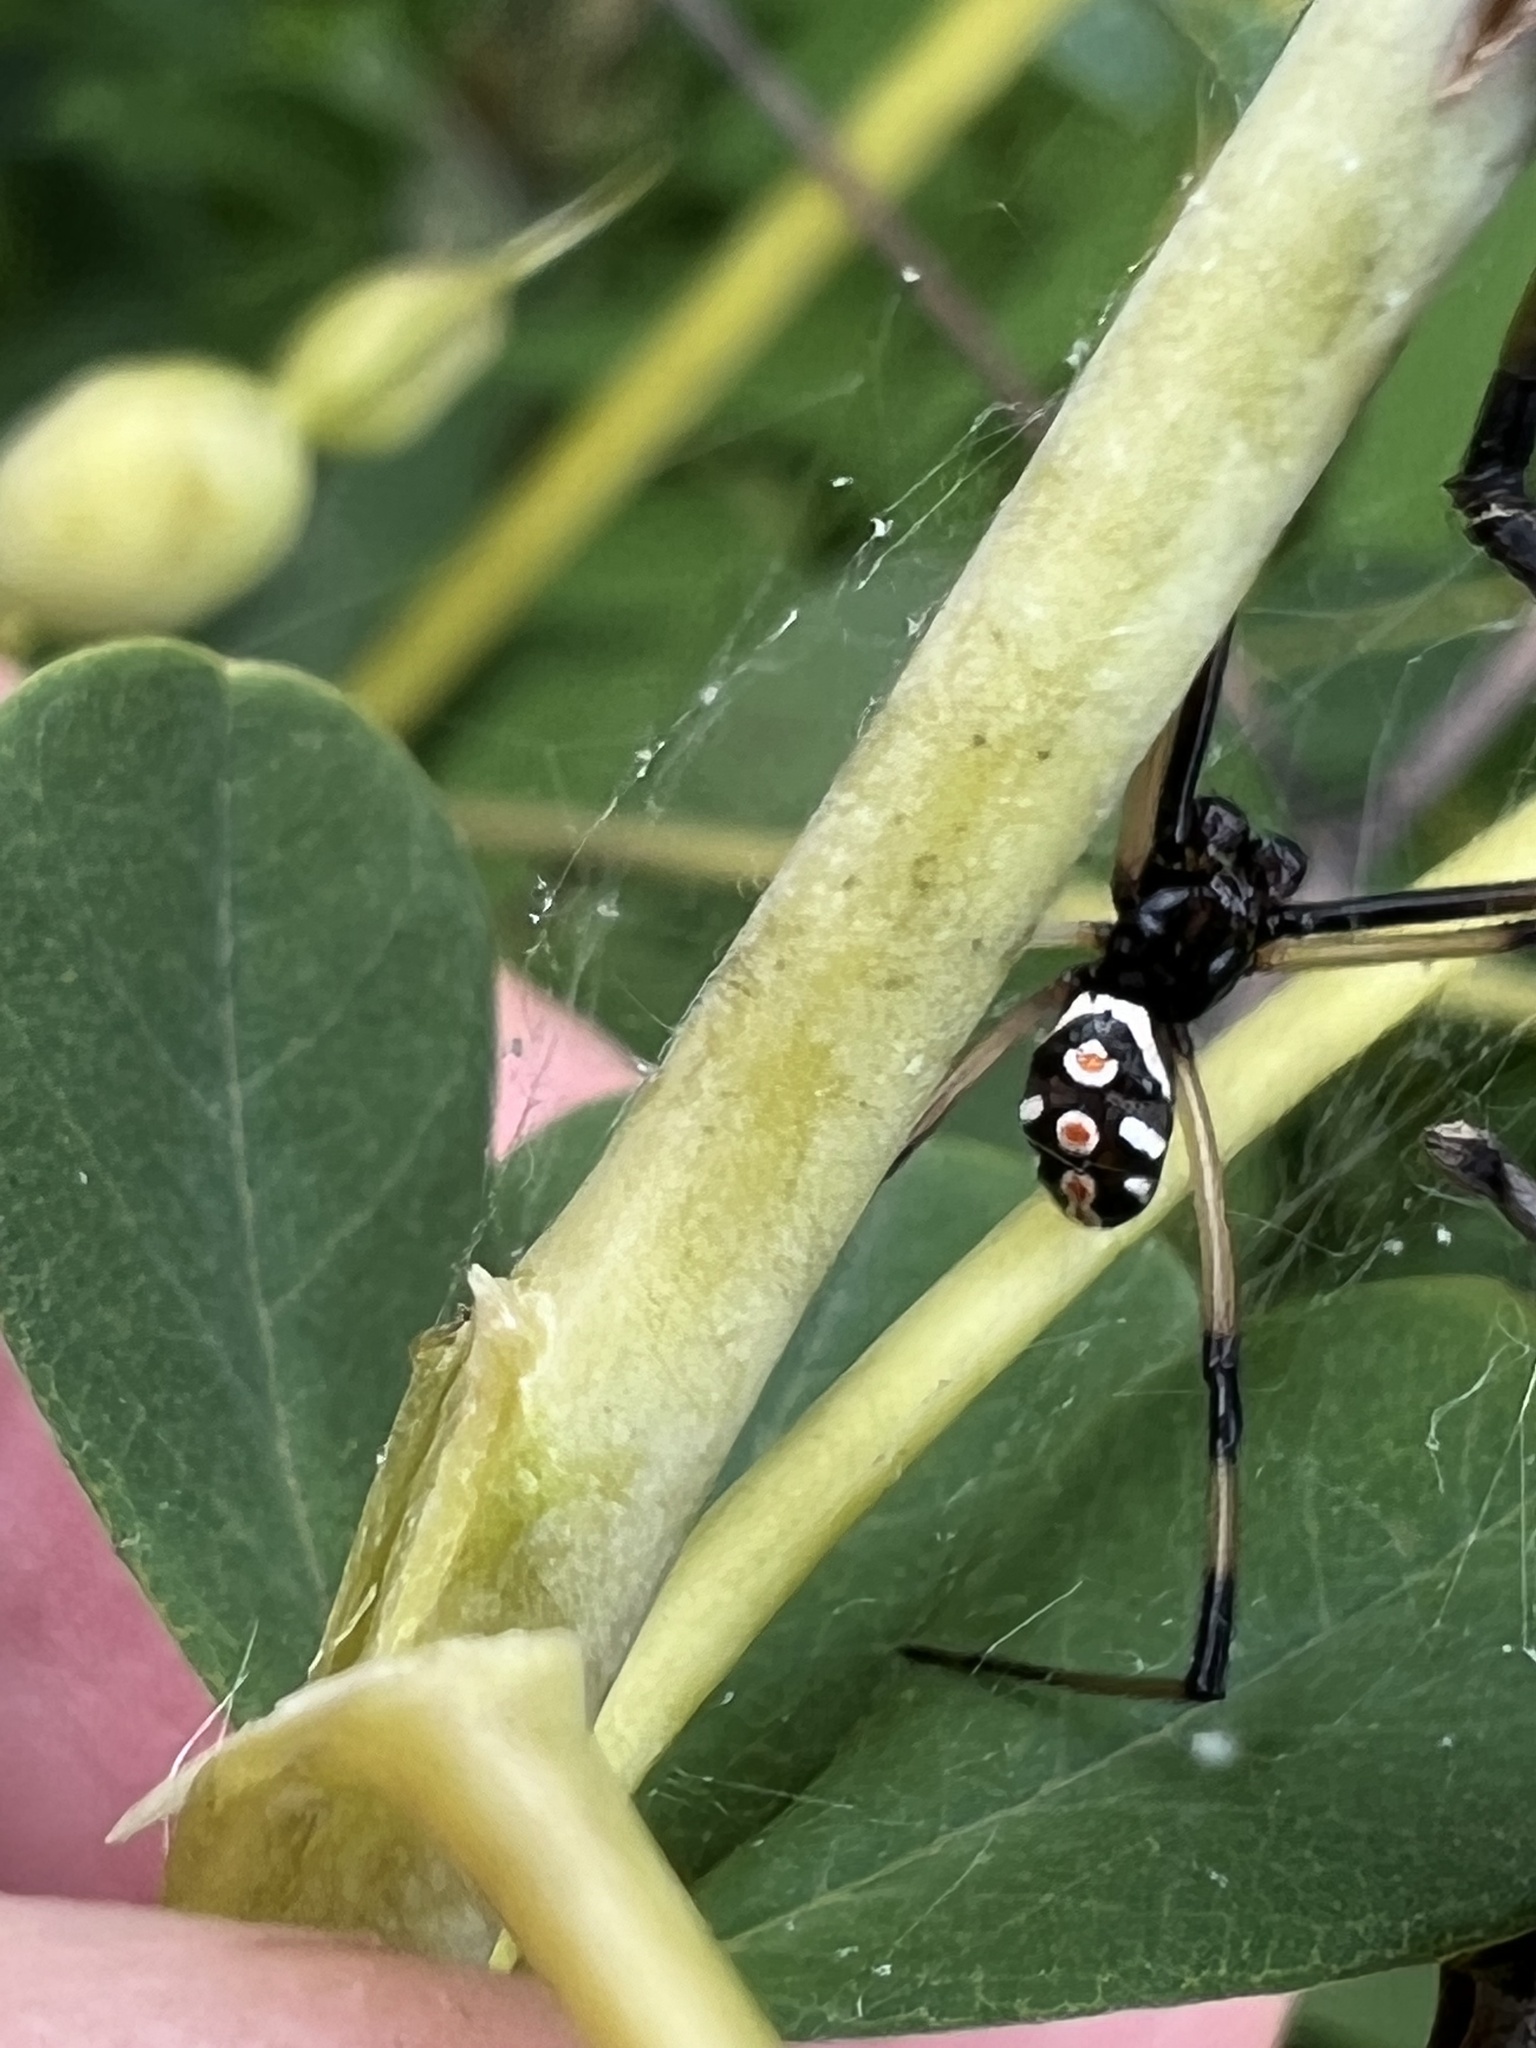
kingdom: Animalia
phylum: Arthropoda
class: Arachnida
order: Araneae
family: Theridiidae
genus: Latrodectus
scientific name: Latrodectus mactans
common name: Cobweb spiders
